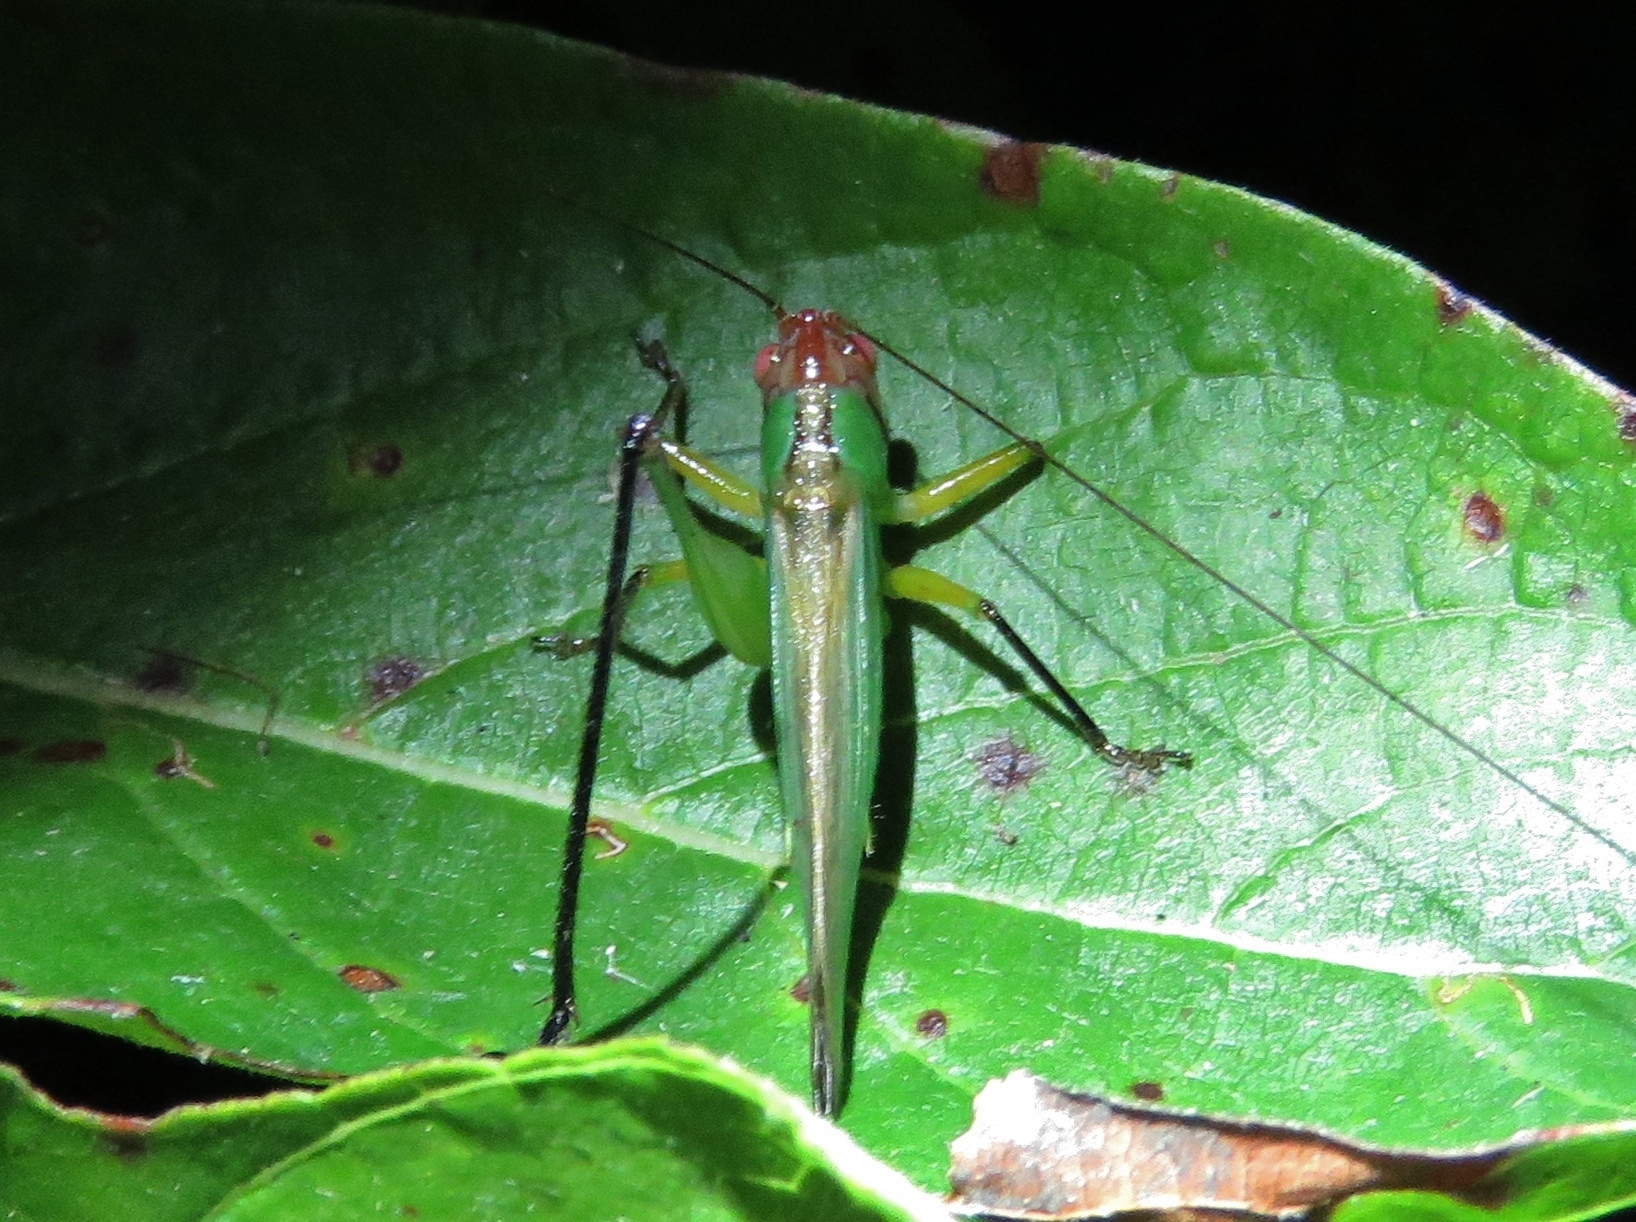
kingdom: Animalia
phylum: Arthropoda
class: Insecta
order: Orthoptera
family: Tettigoniidae
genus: Orchelimum
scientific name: Orchelimum nigripes
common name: Black-legged meadow katydid
